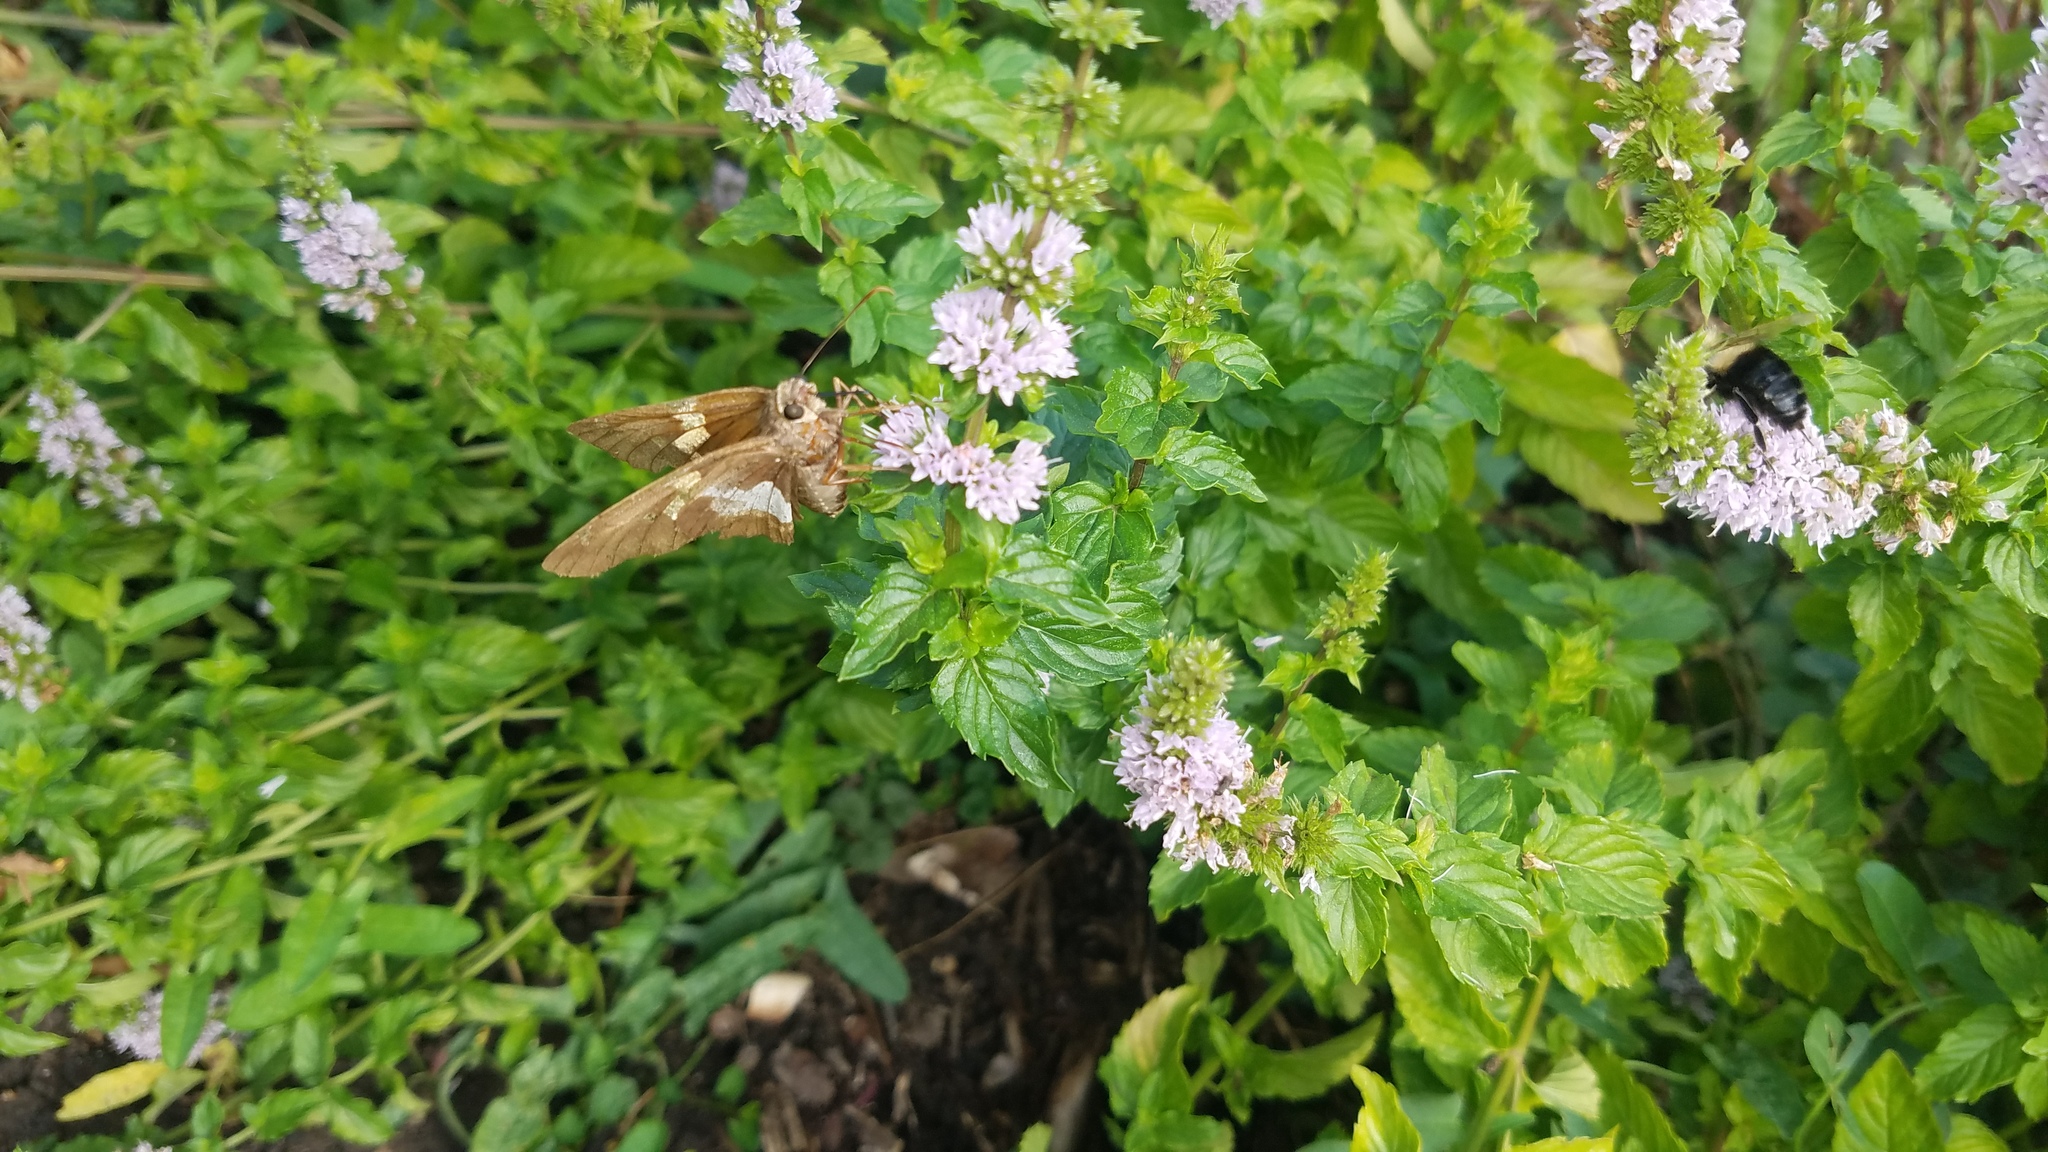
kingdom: Animalia
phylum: Arthropoda
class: Insecta
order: Lepidoptera
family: Hesperiidae
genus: Epargyreus
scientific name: Epargyreus clarus
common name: Silver-spotted skipper
